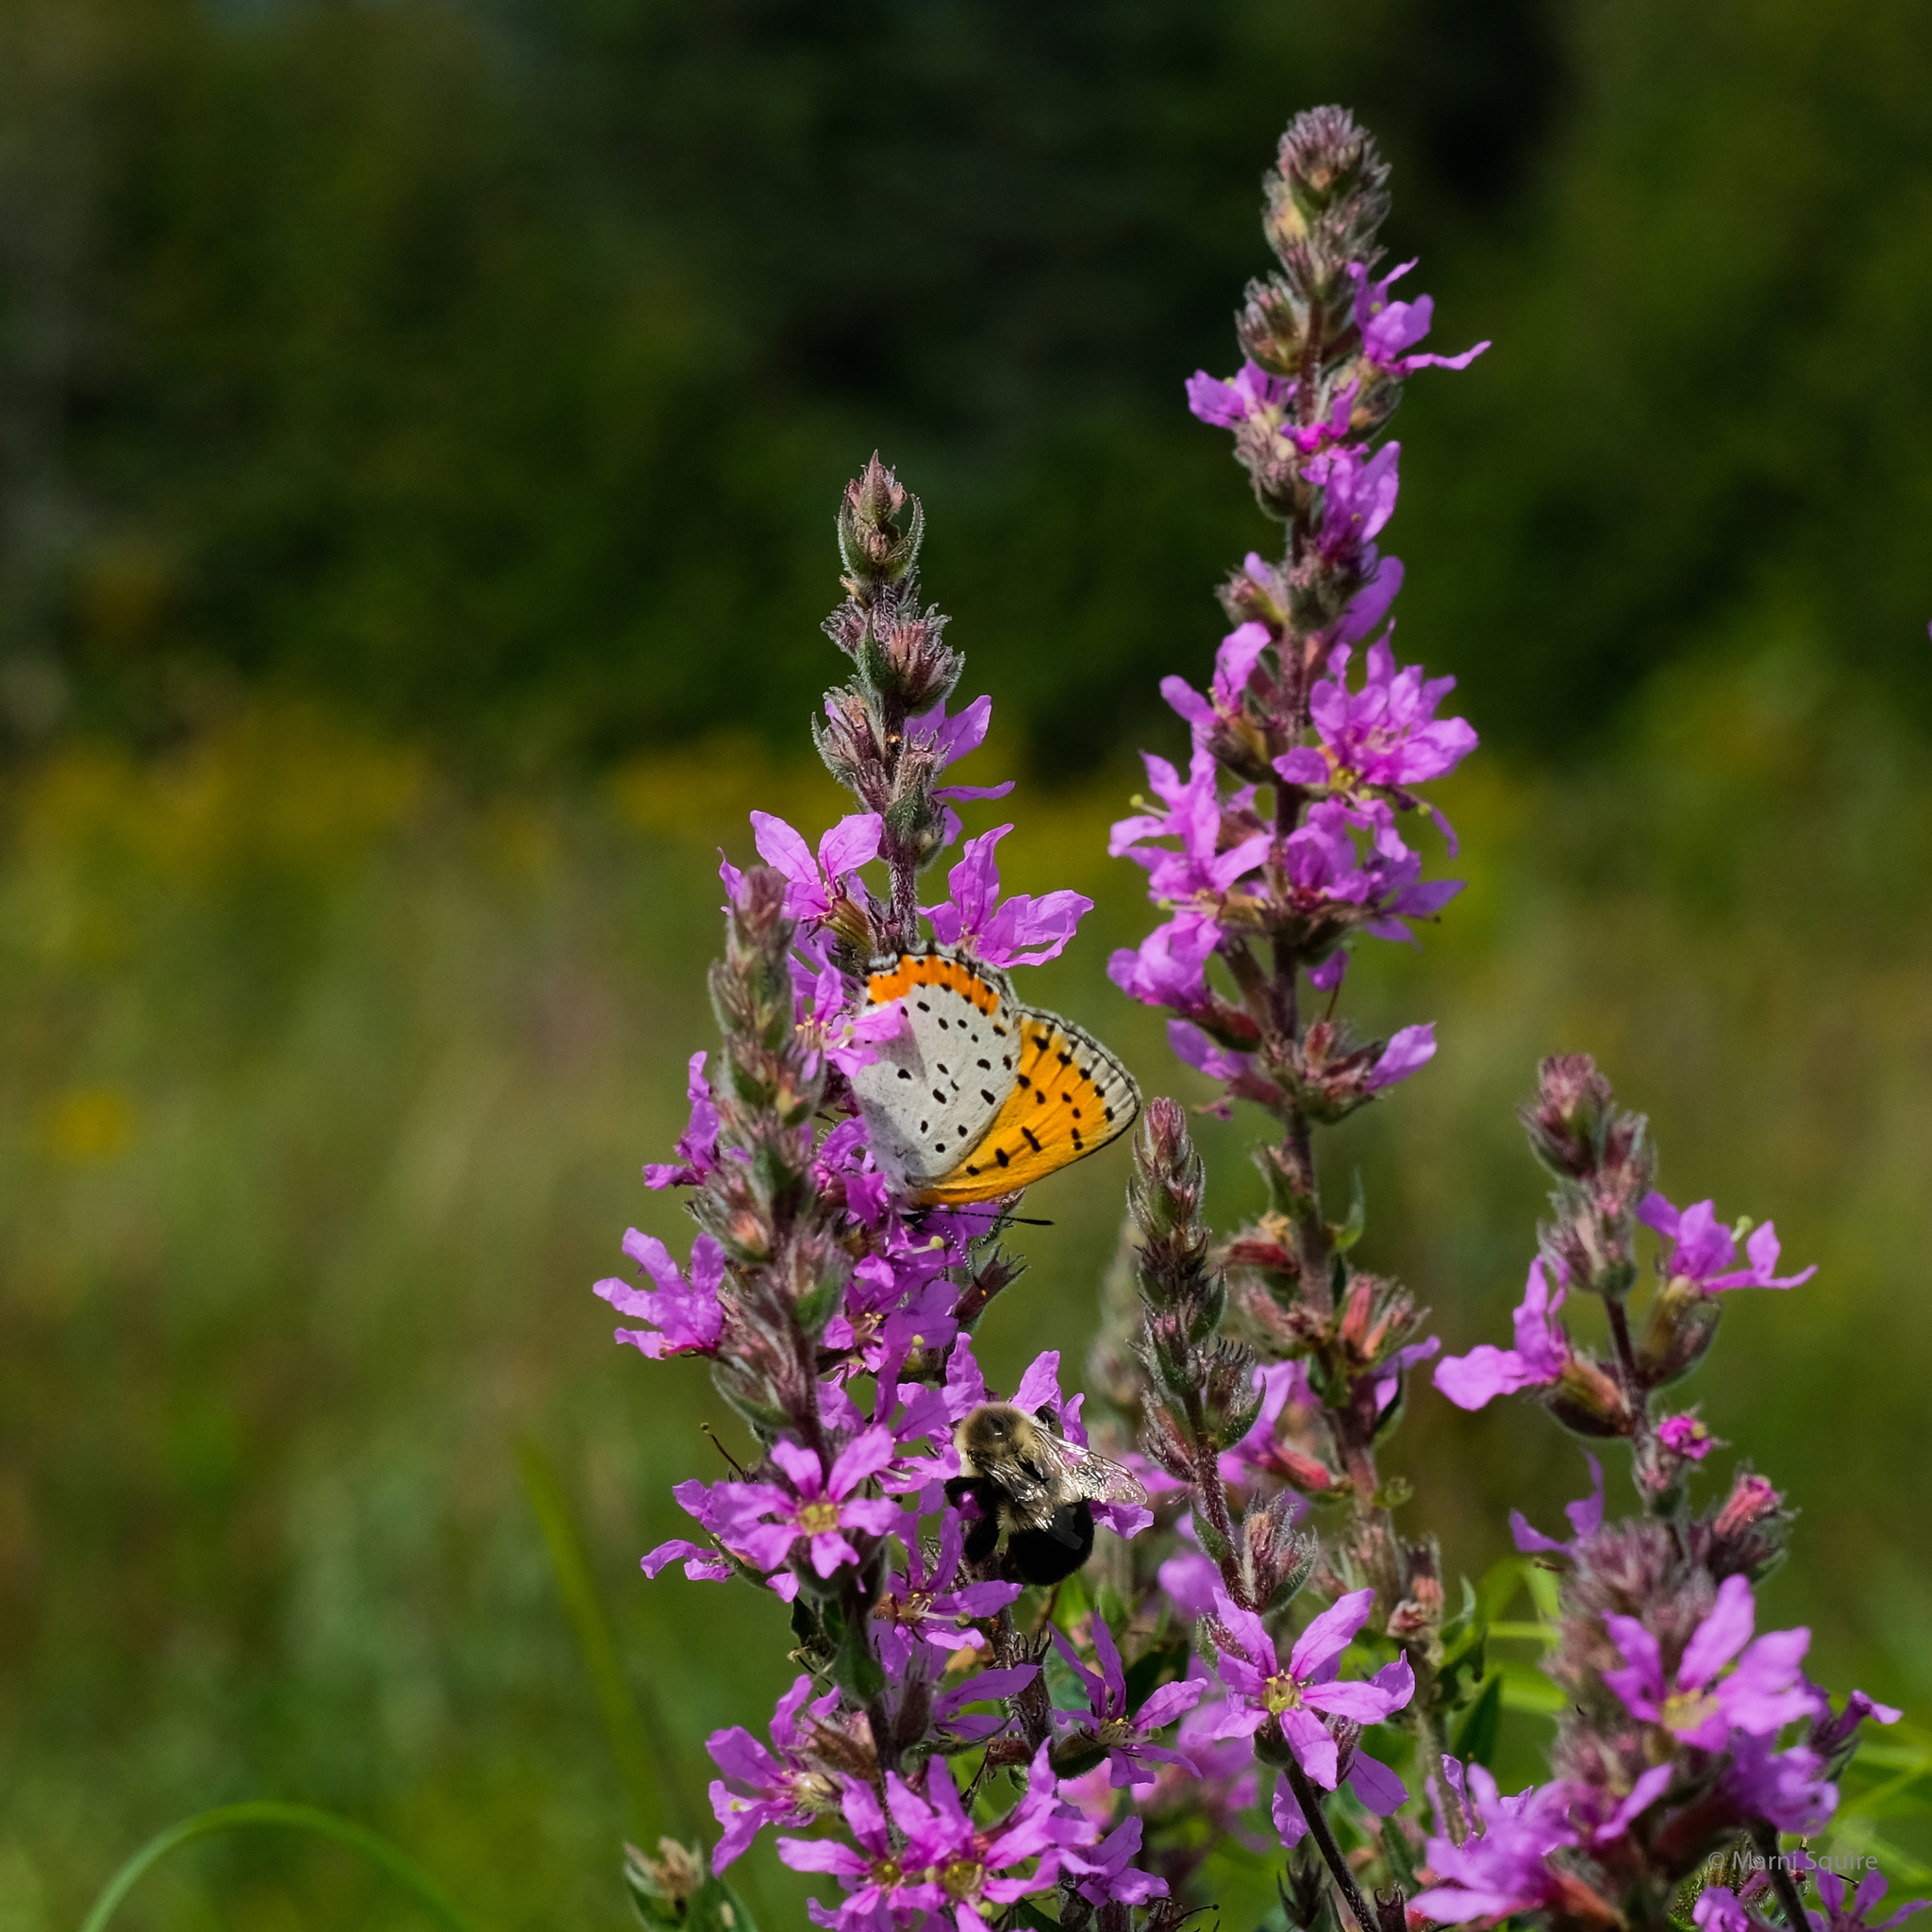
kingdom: Animalia
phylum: Arthropoda
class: Insecta
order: Lepidoptera
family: Lycaenidae
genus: Tharsalea
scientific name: Tharsalea hyllus
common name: Bronze copper
